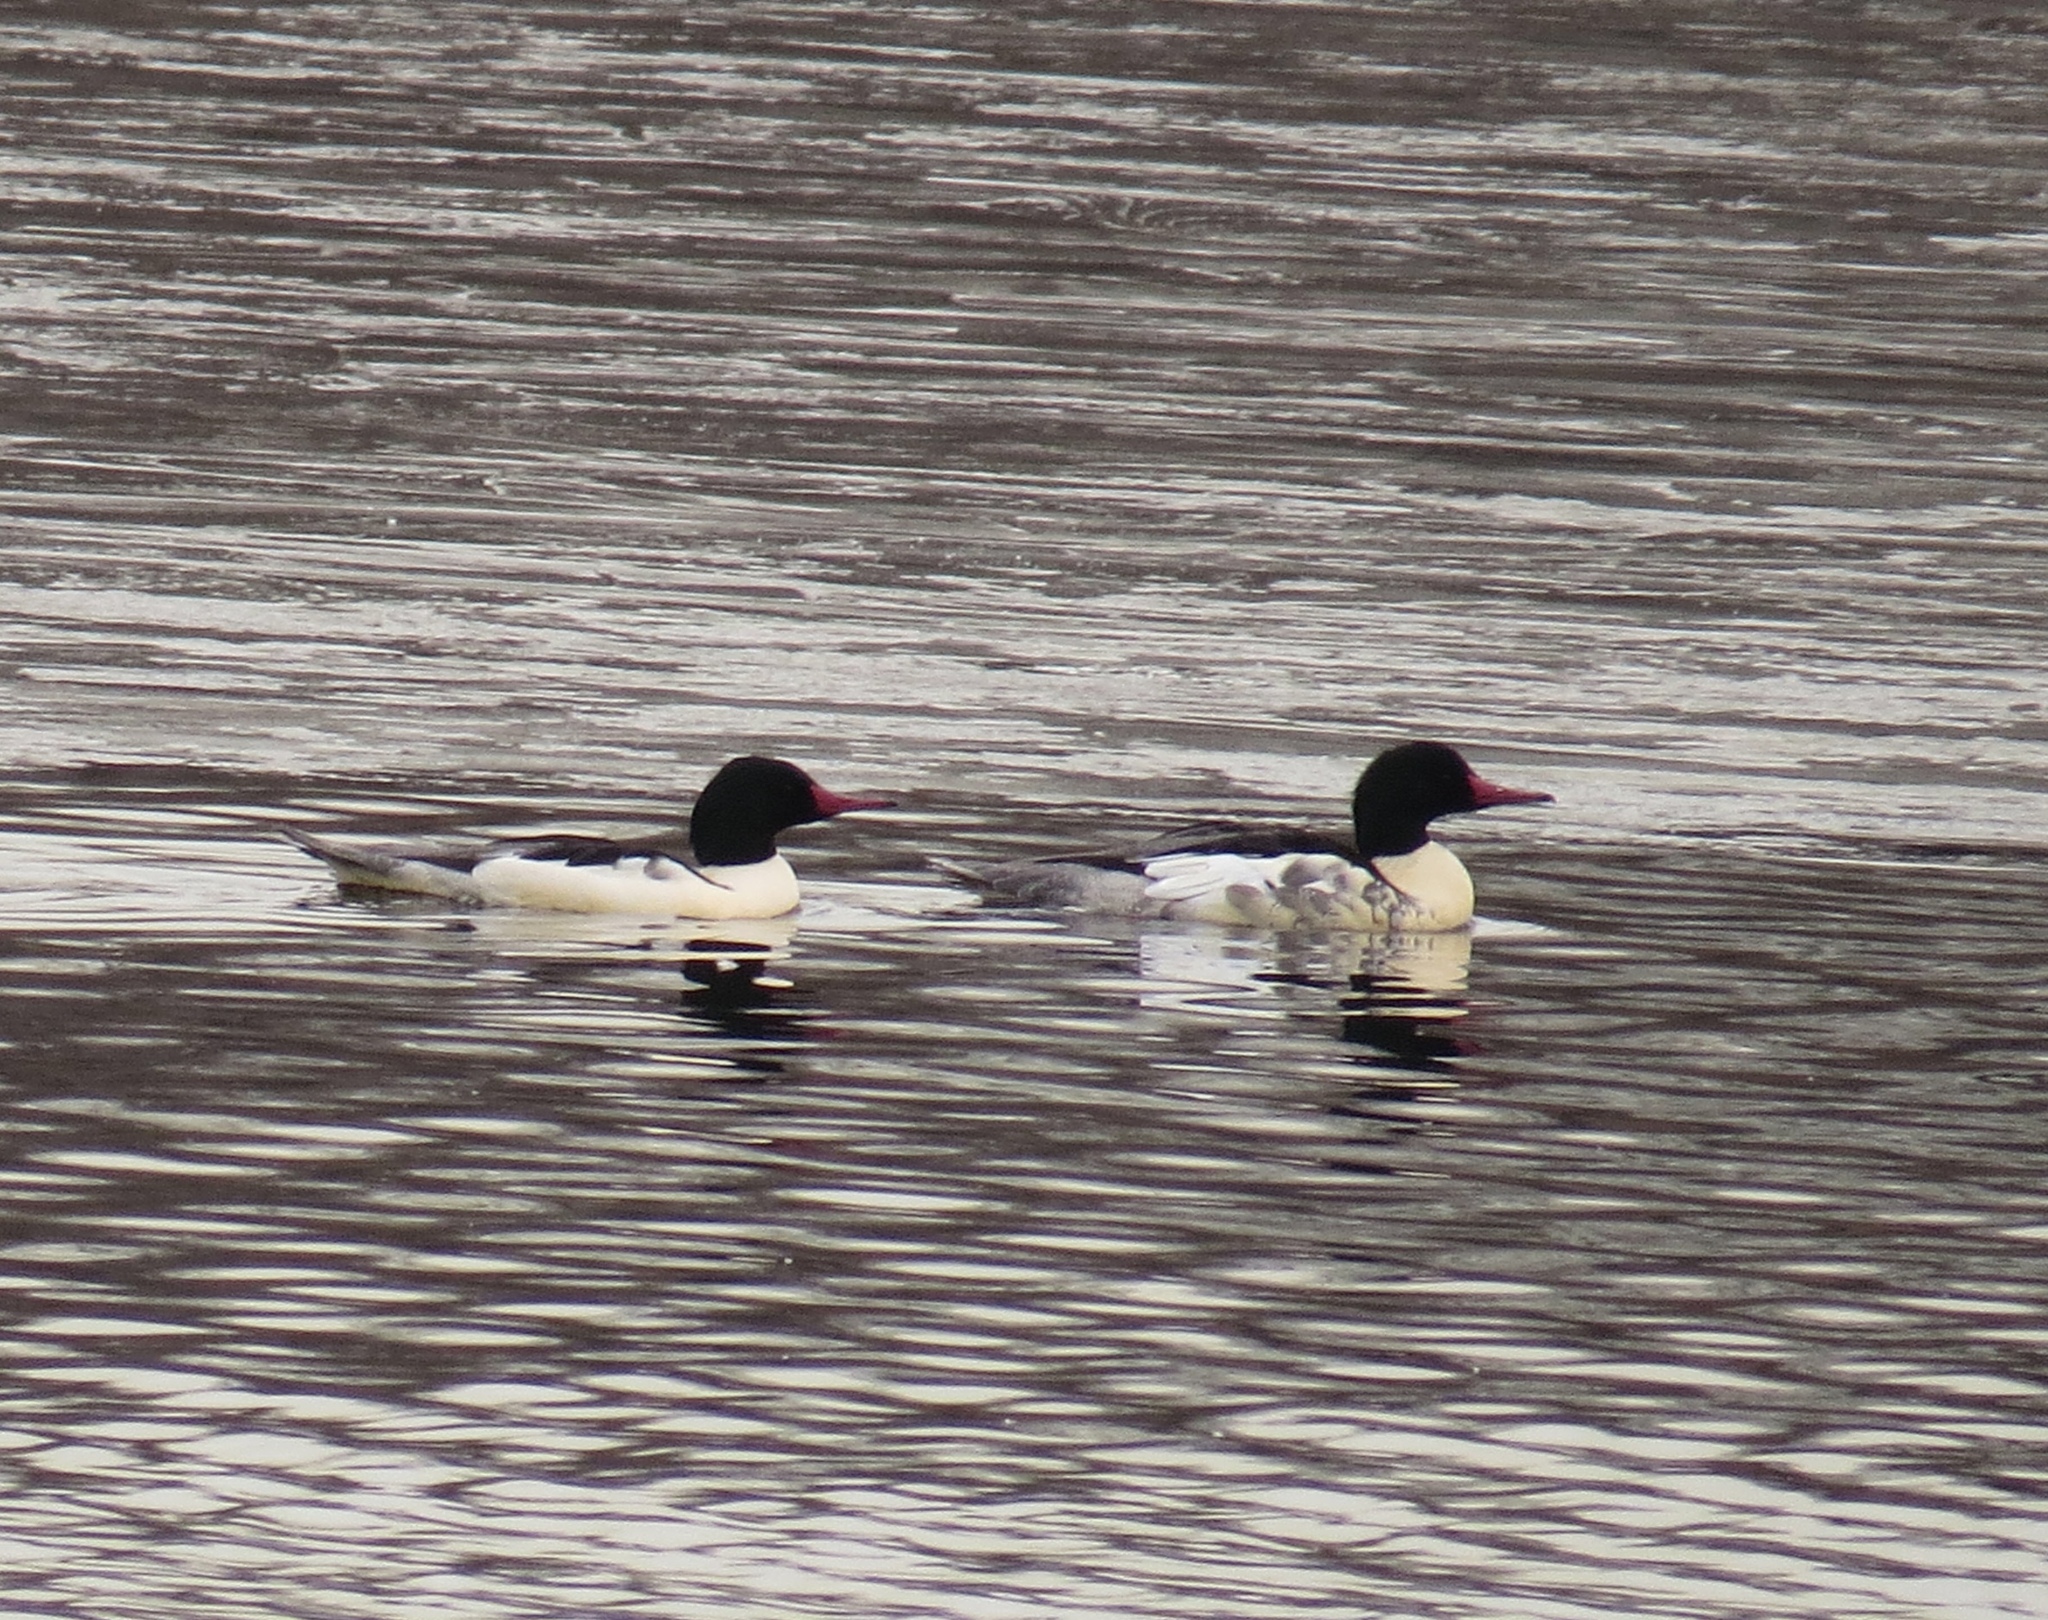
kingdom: Animalia
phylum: Chordata
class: Aves
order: Anseriformes
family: Anatidae
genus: Mergus
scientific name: Mergus merganser
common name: Common merganser
